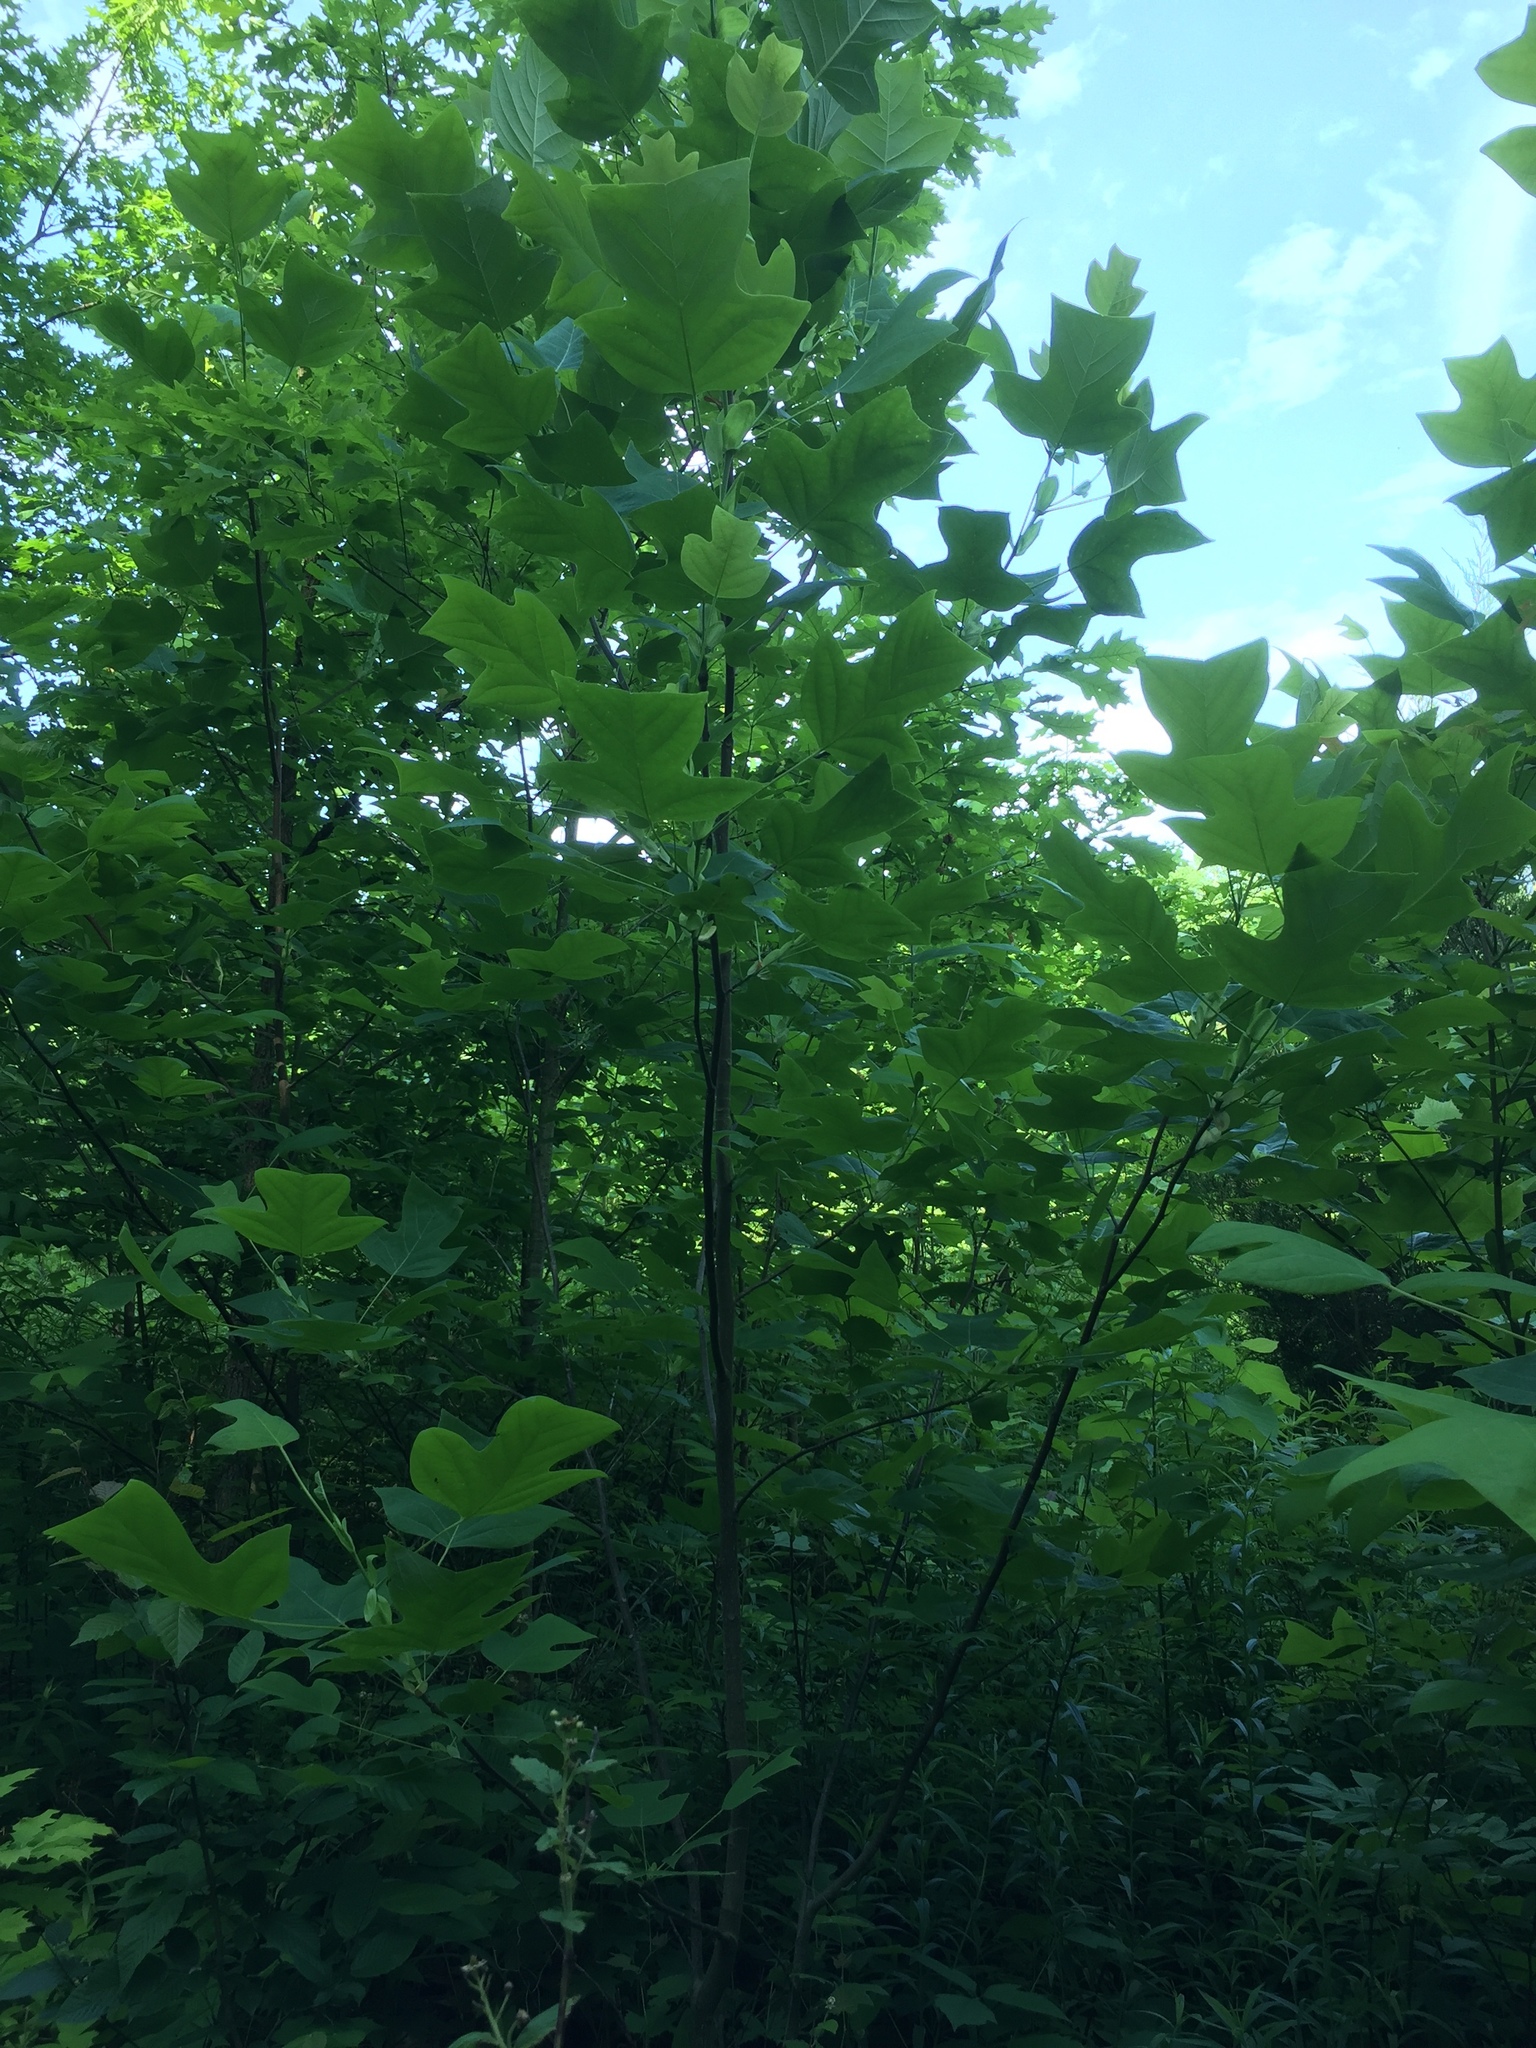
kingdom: Plantae
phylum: Tracheophyta
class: Magnoliopsida
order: Magnoliales
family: Magnoliaceae
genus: Liriodendron
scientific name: Liriodendron tulipifera
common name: Tulip tree
